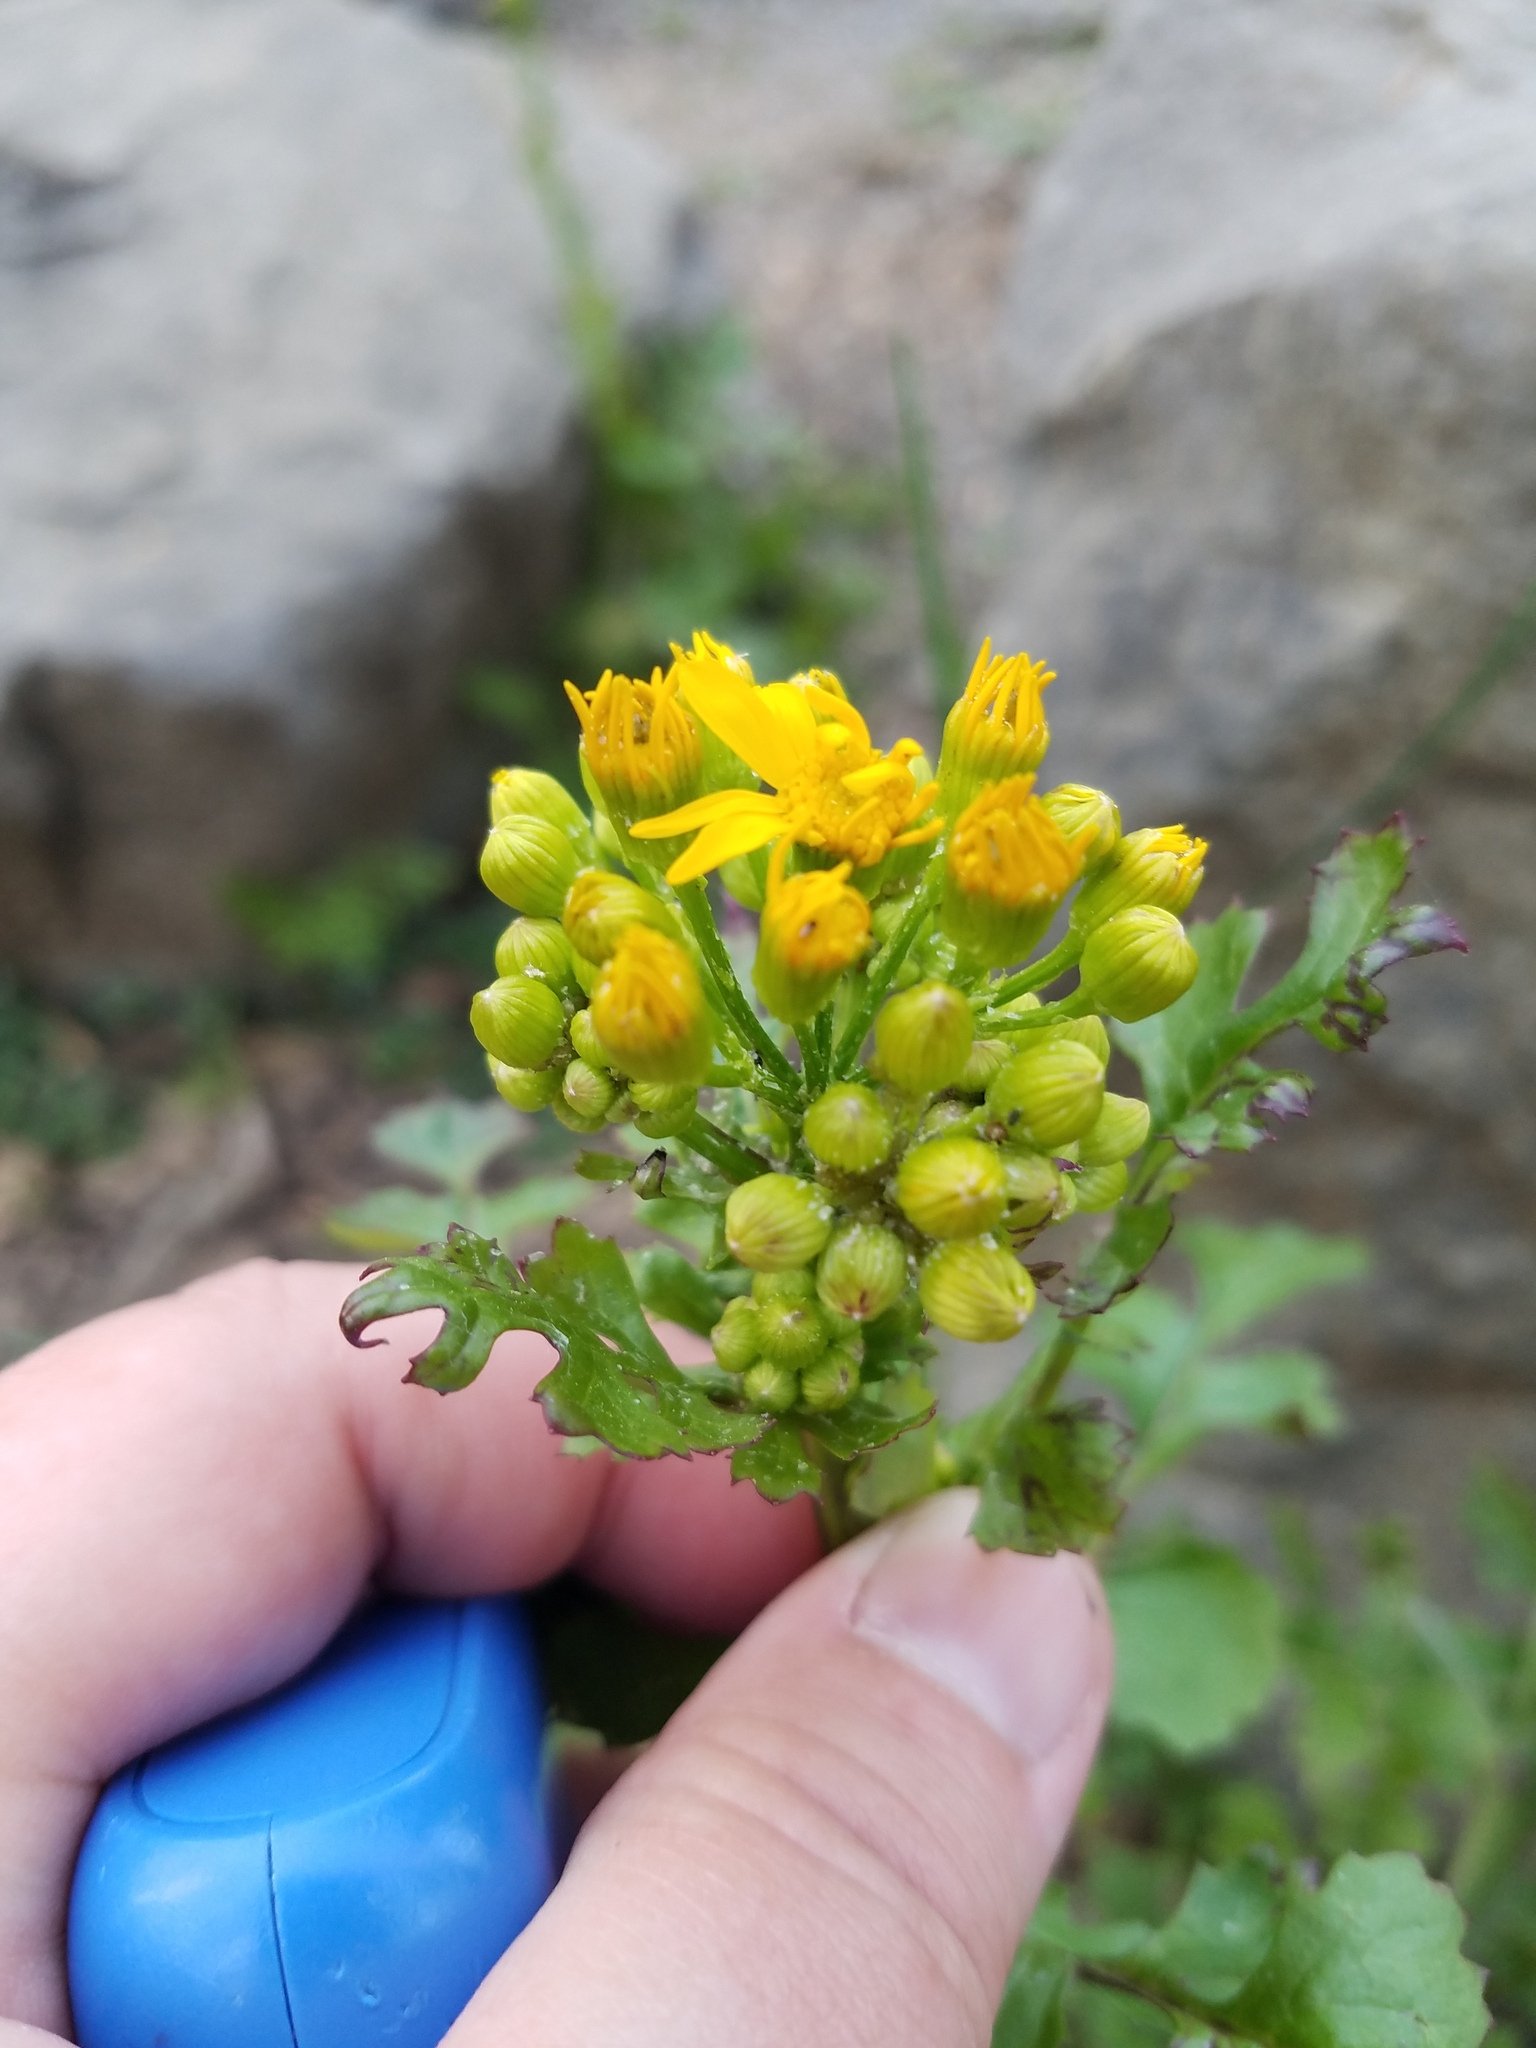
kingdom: Plantae
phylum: Tracheophyta
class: Magnoliopsida
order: Asterales
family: Asteraceae
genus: Packera
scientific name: Packera glabella
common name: Butterweed
